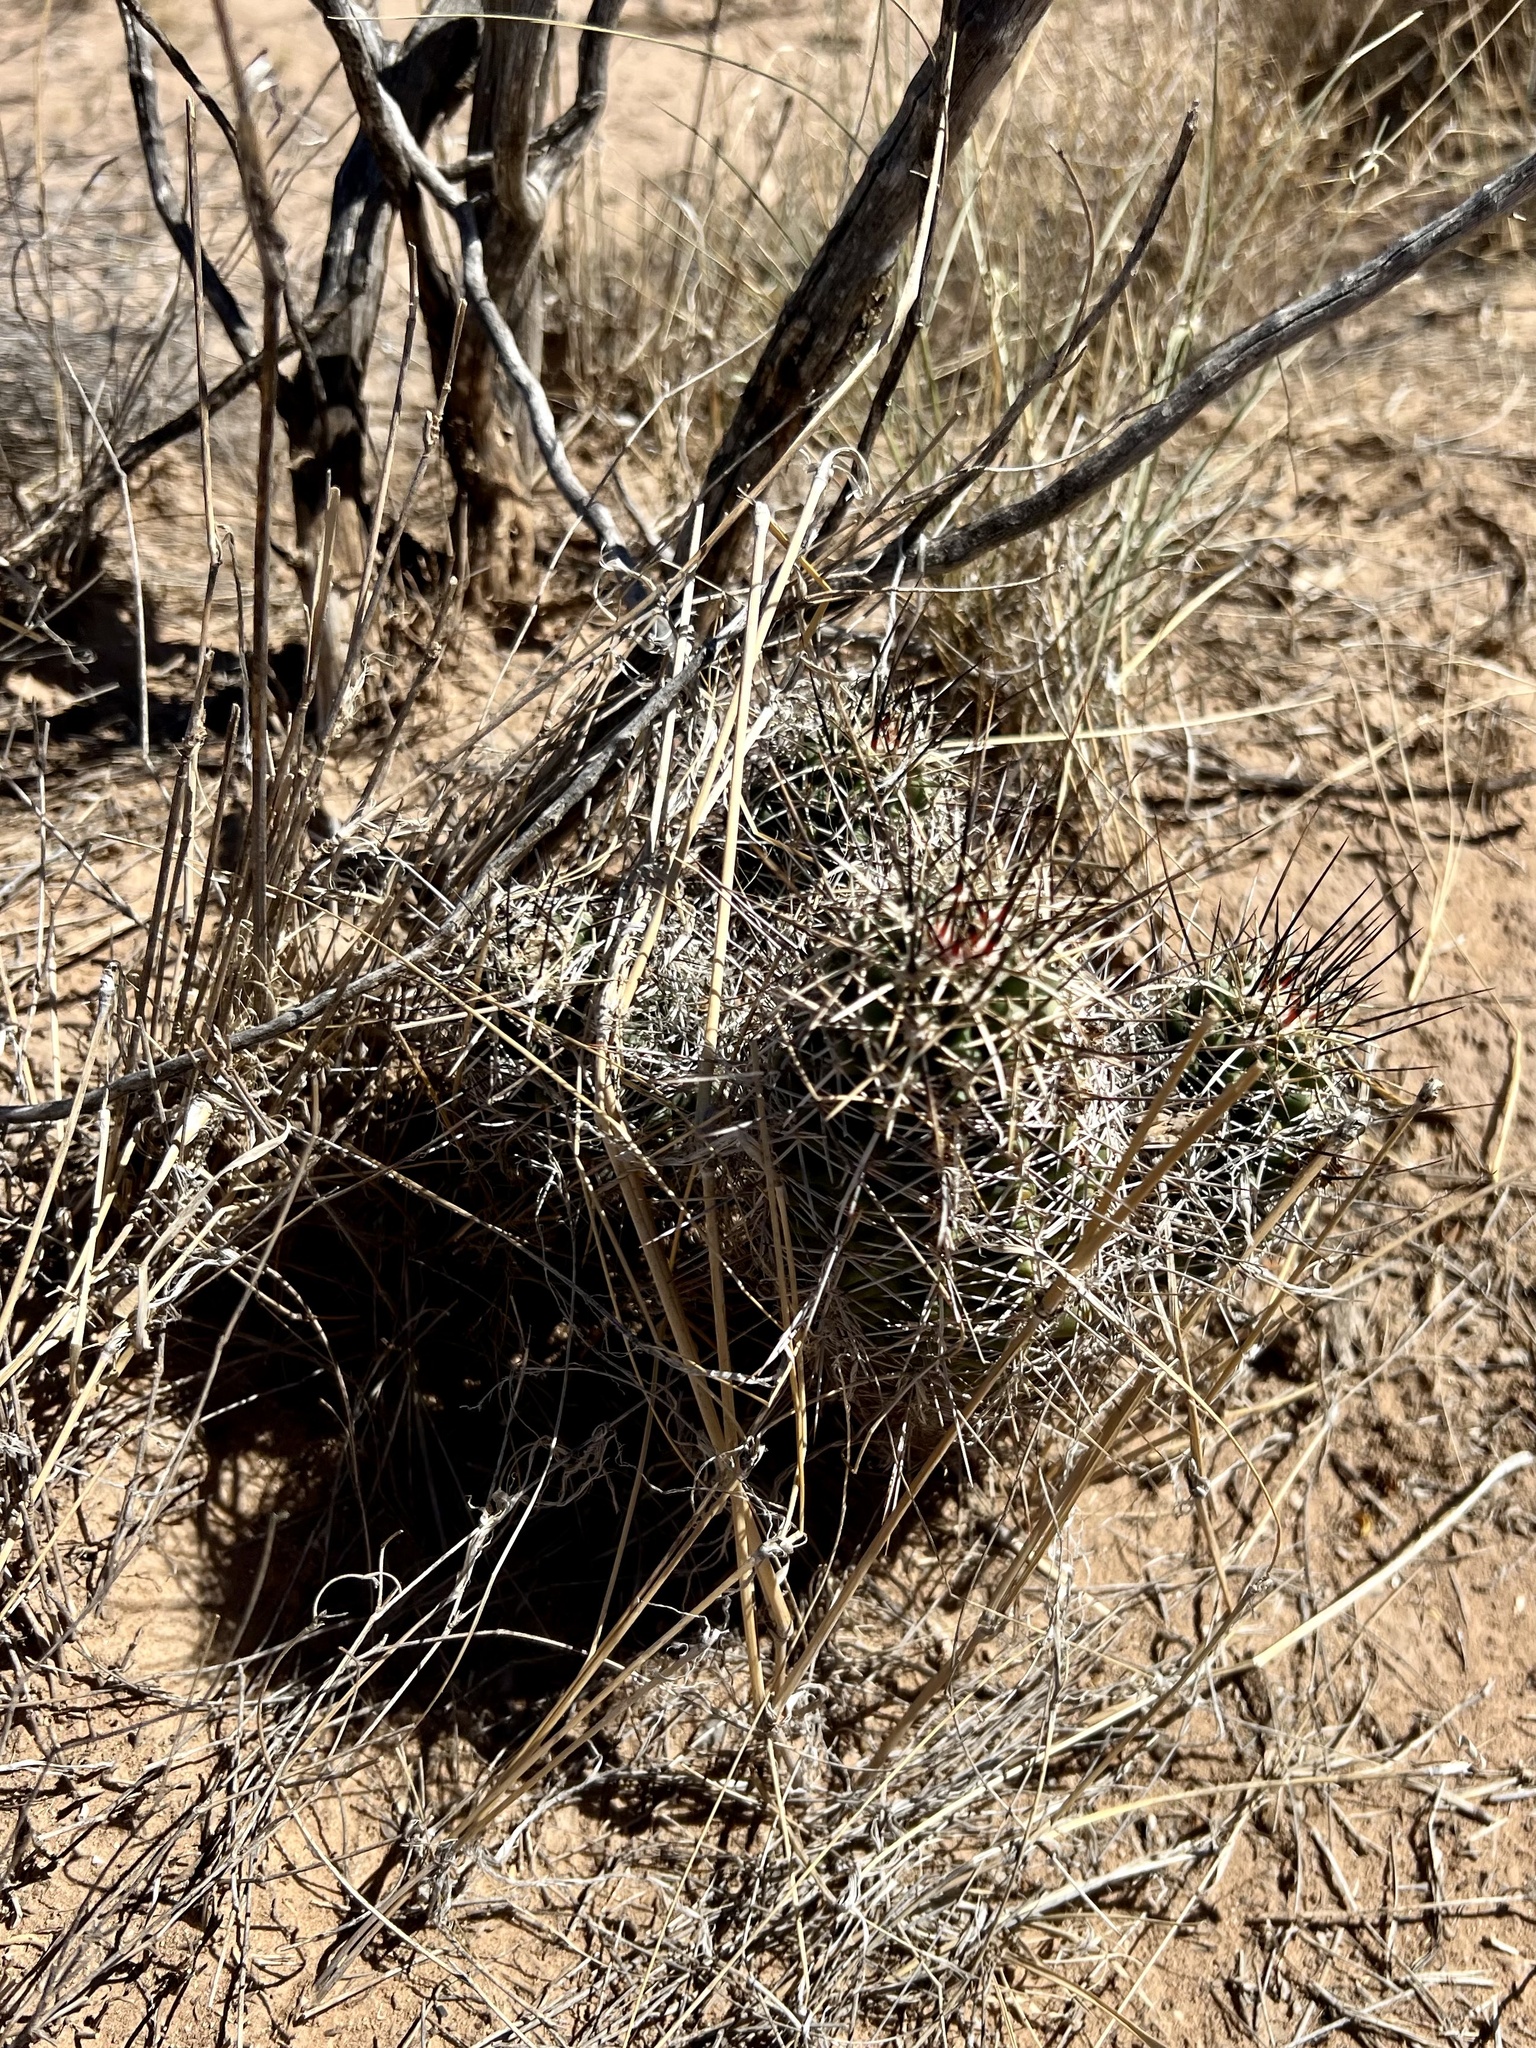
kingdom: Plantae
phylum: Tracheophyta
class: Magnoliopsida
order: Caryophyllales
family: Cactaceae
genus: Echinocereus
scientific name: Echinocereus fendleri
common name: Fendler's hedgehog cactus
